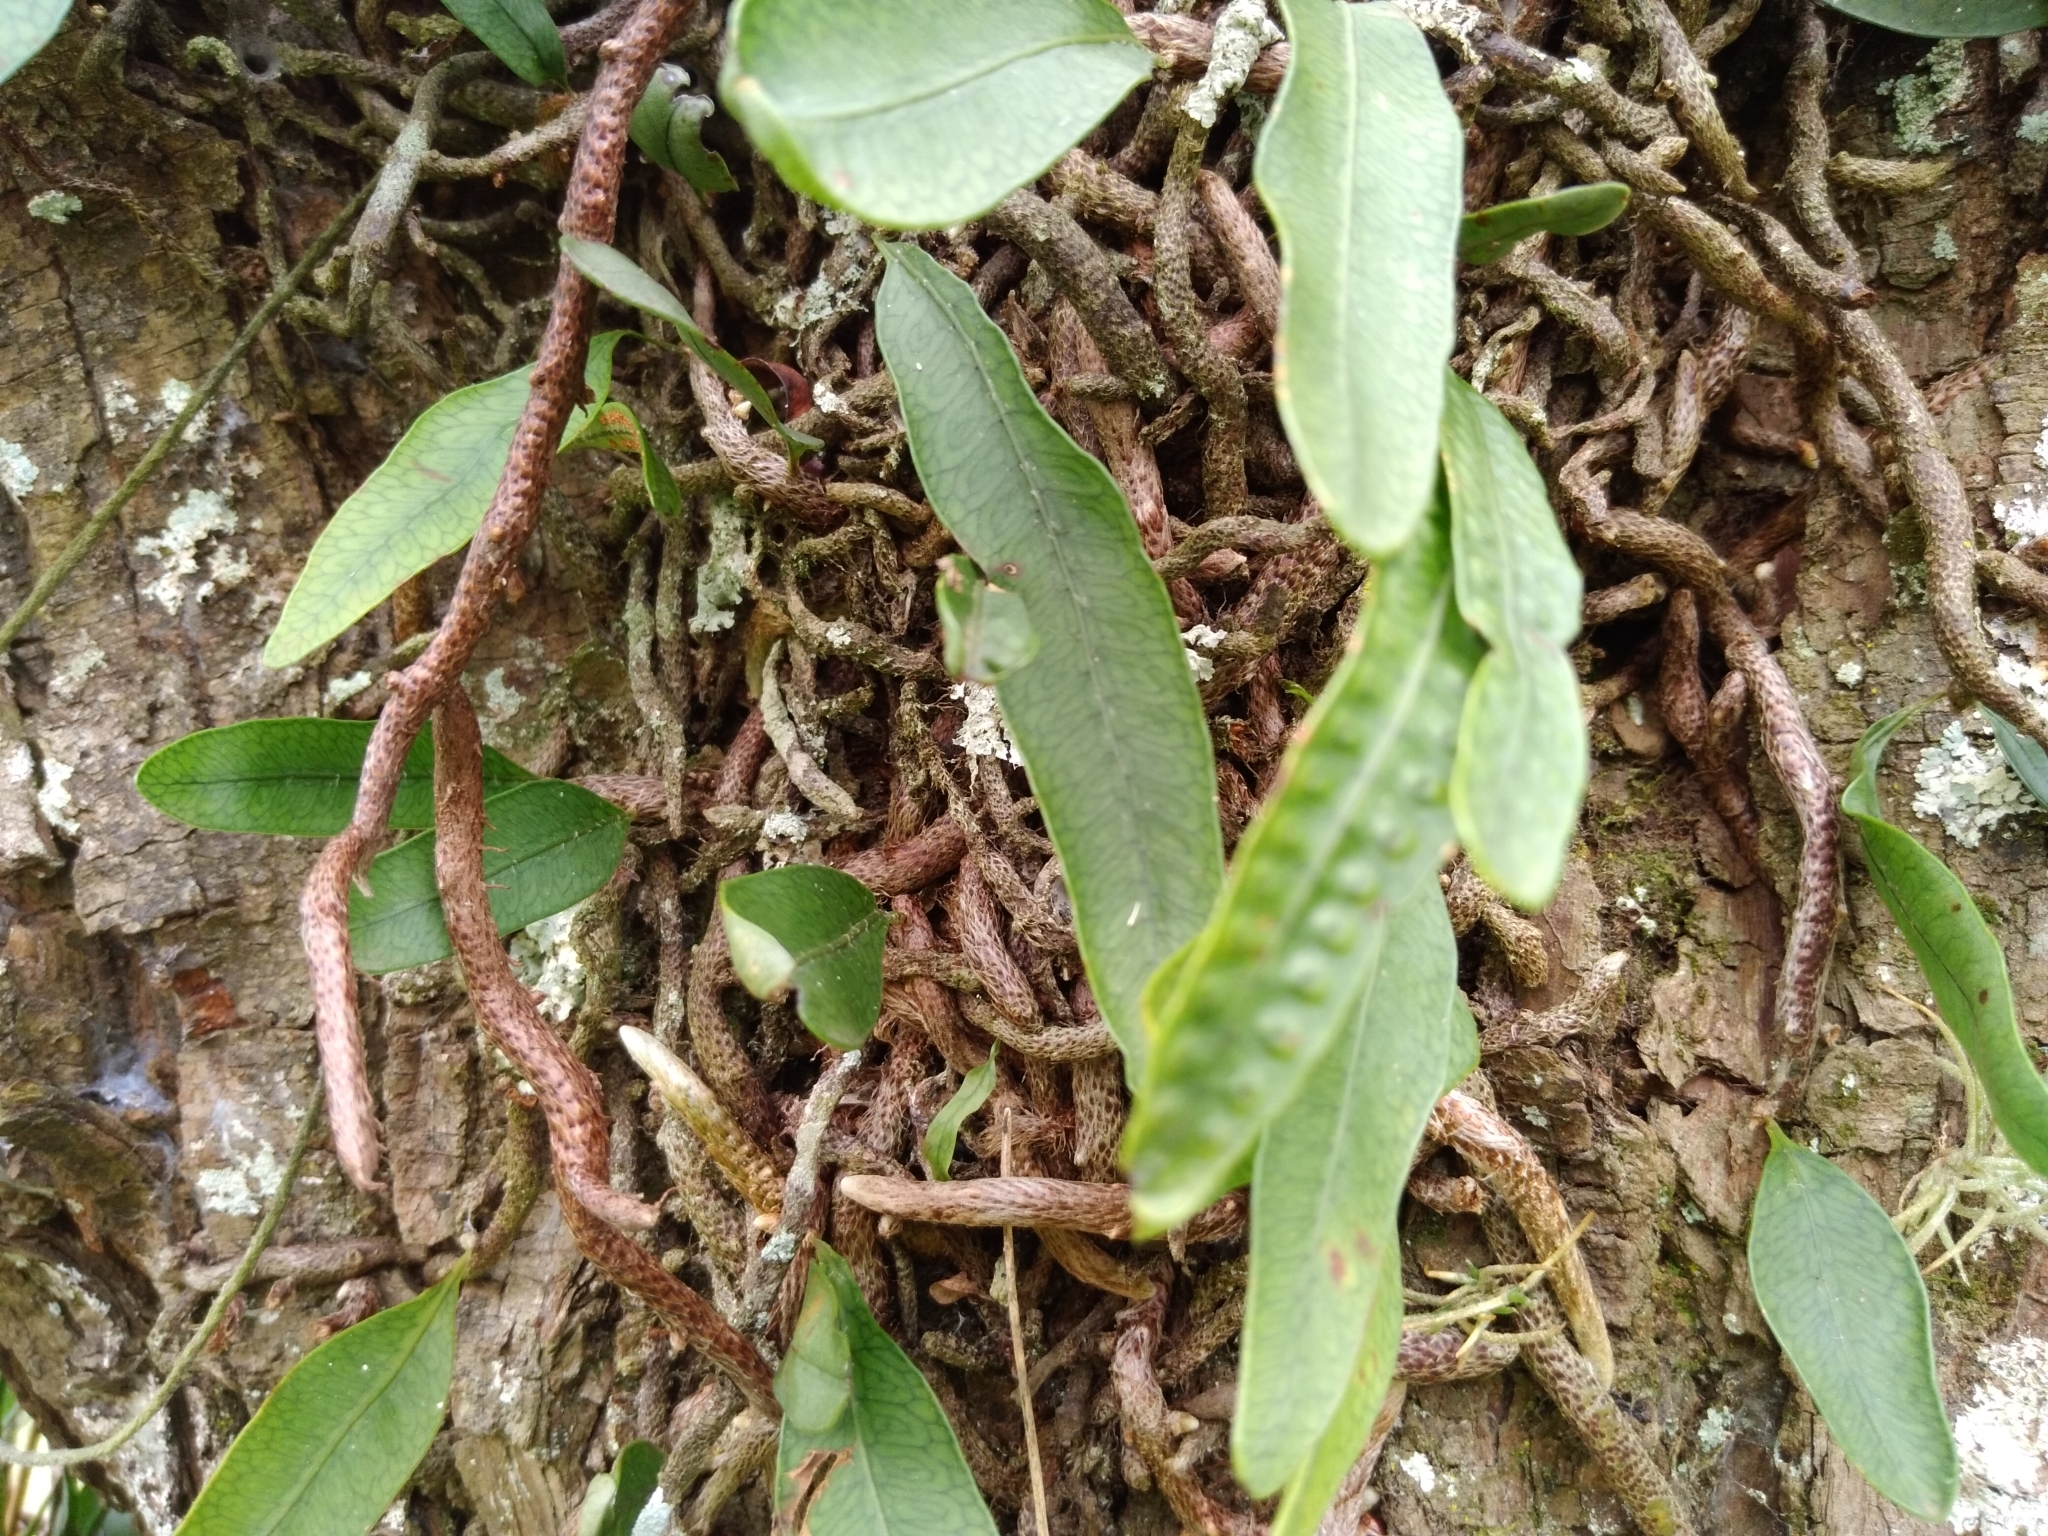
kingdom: Plantae
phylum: Tracheophyta
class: Polypodiopsida
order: Polypodiales
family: Polypodiaceae
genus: Microgramma
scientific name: Microgramma squamulosa
